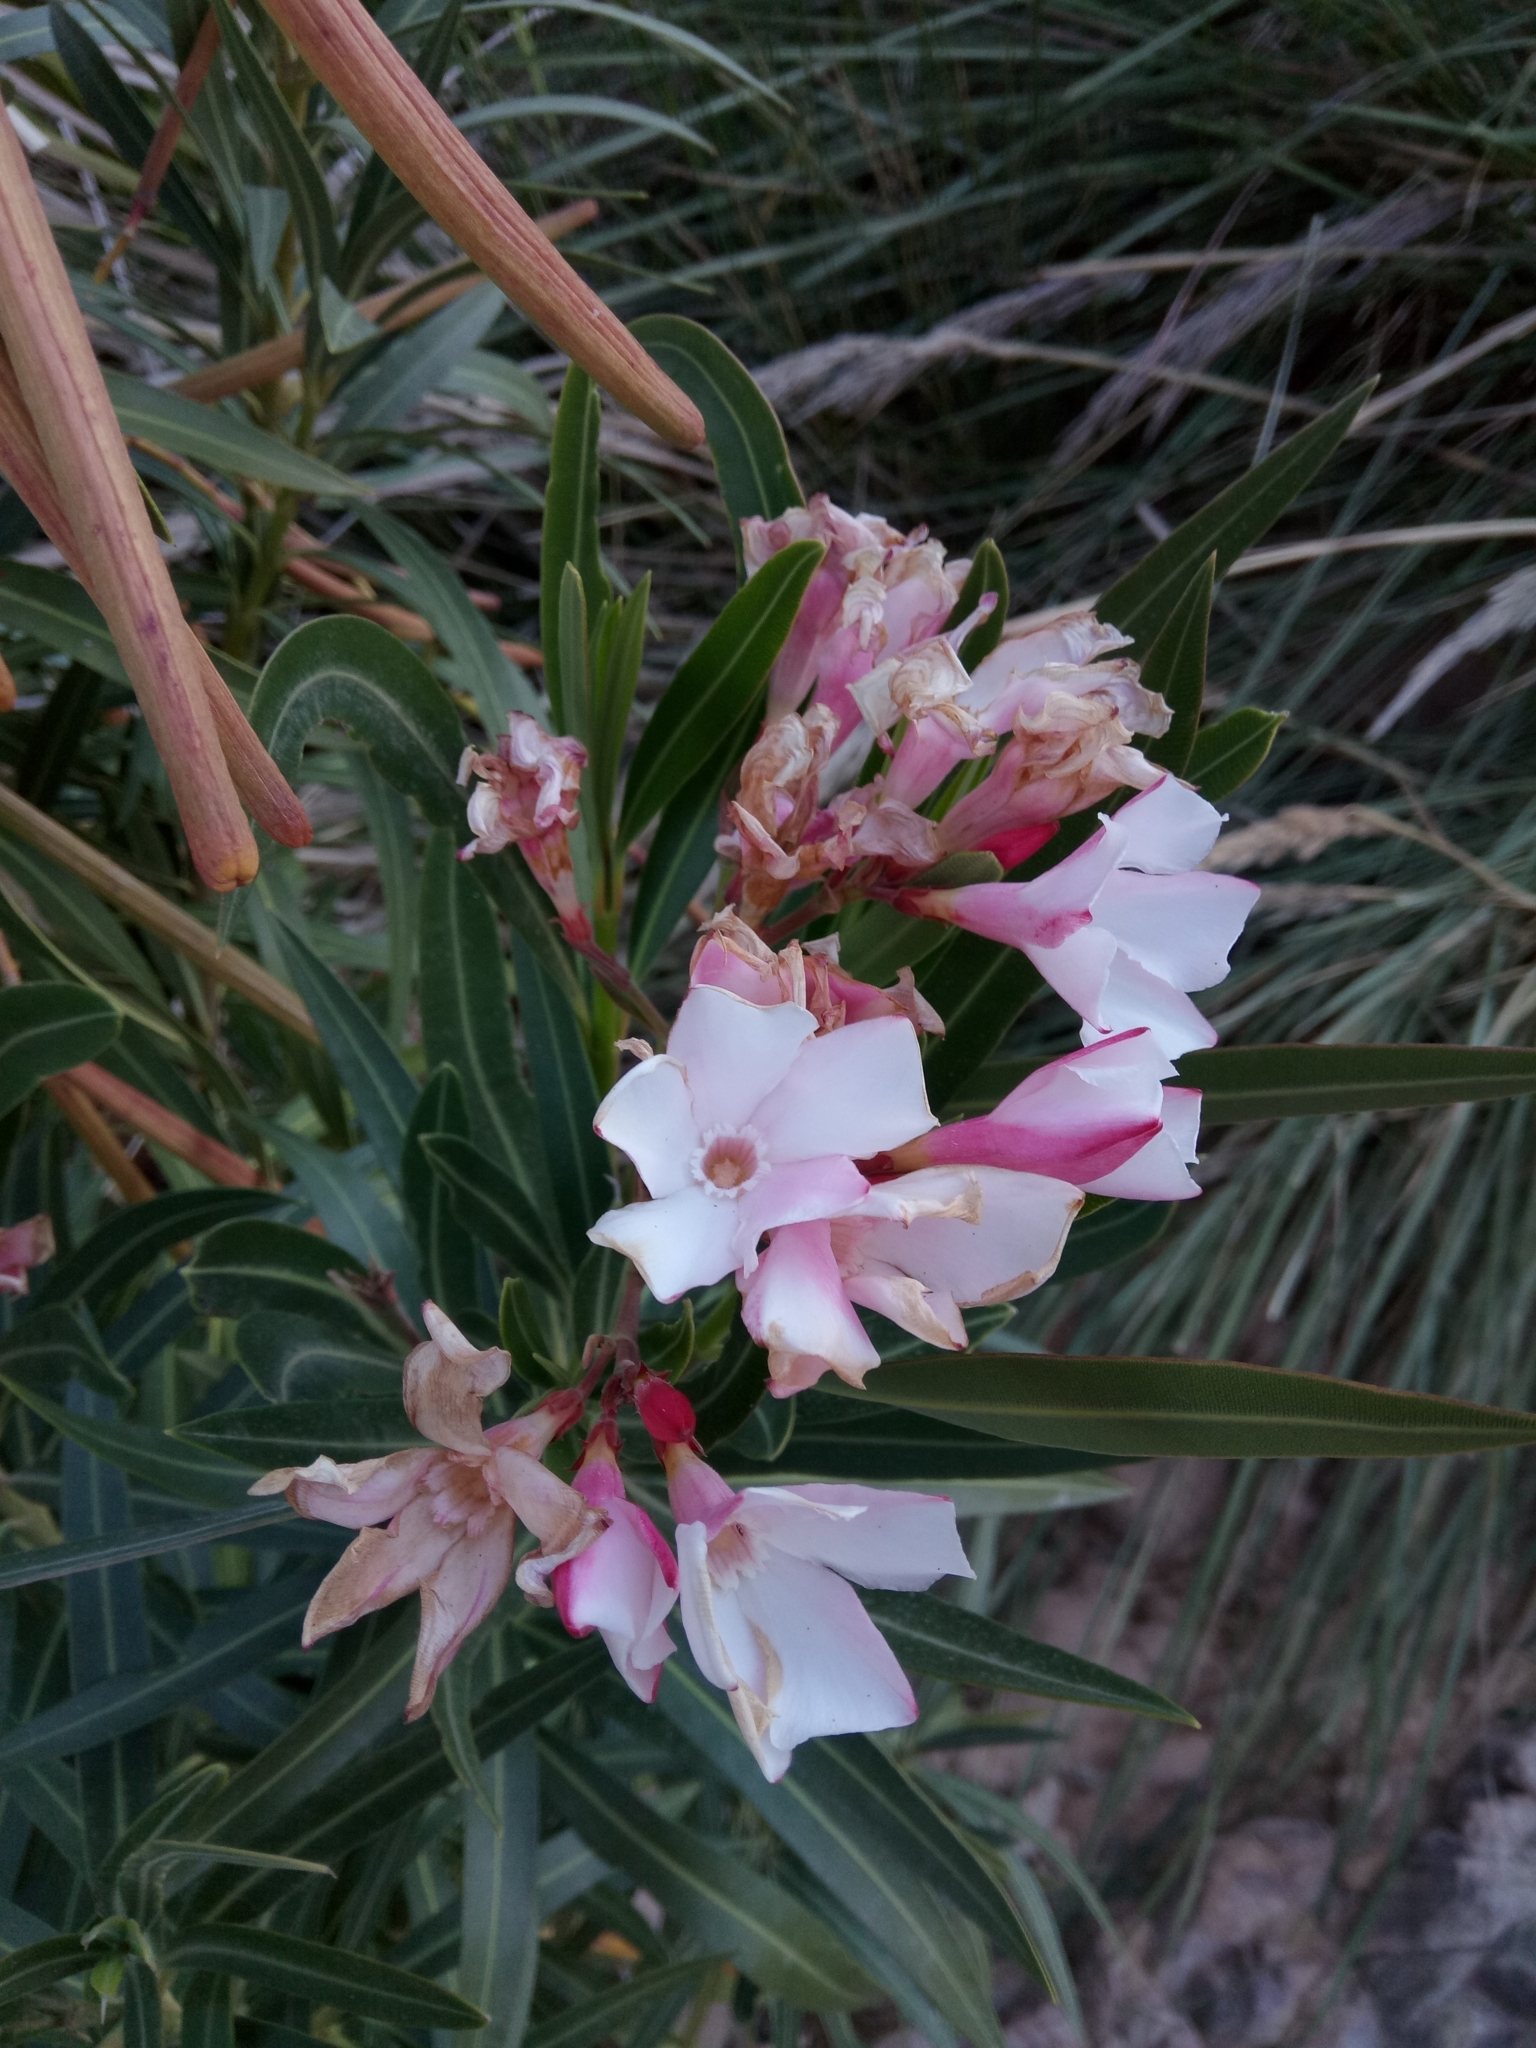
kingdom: Plantae
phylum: Tracheophyta
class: Magnoliopsida
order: Gentianales
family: Apocynaceae
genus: Nerium
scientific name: Nerium oleander
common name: Oleander
